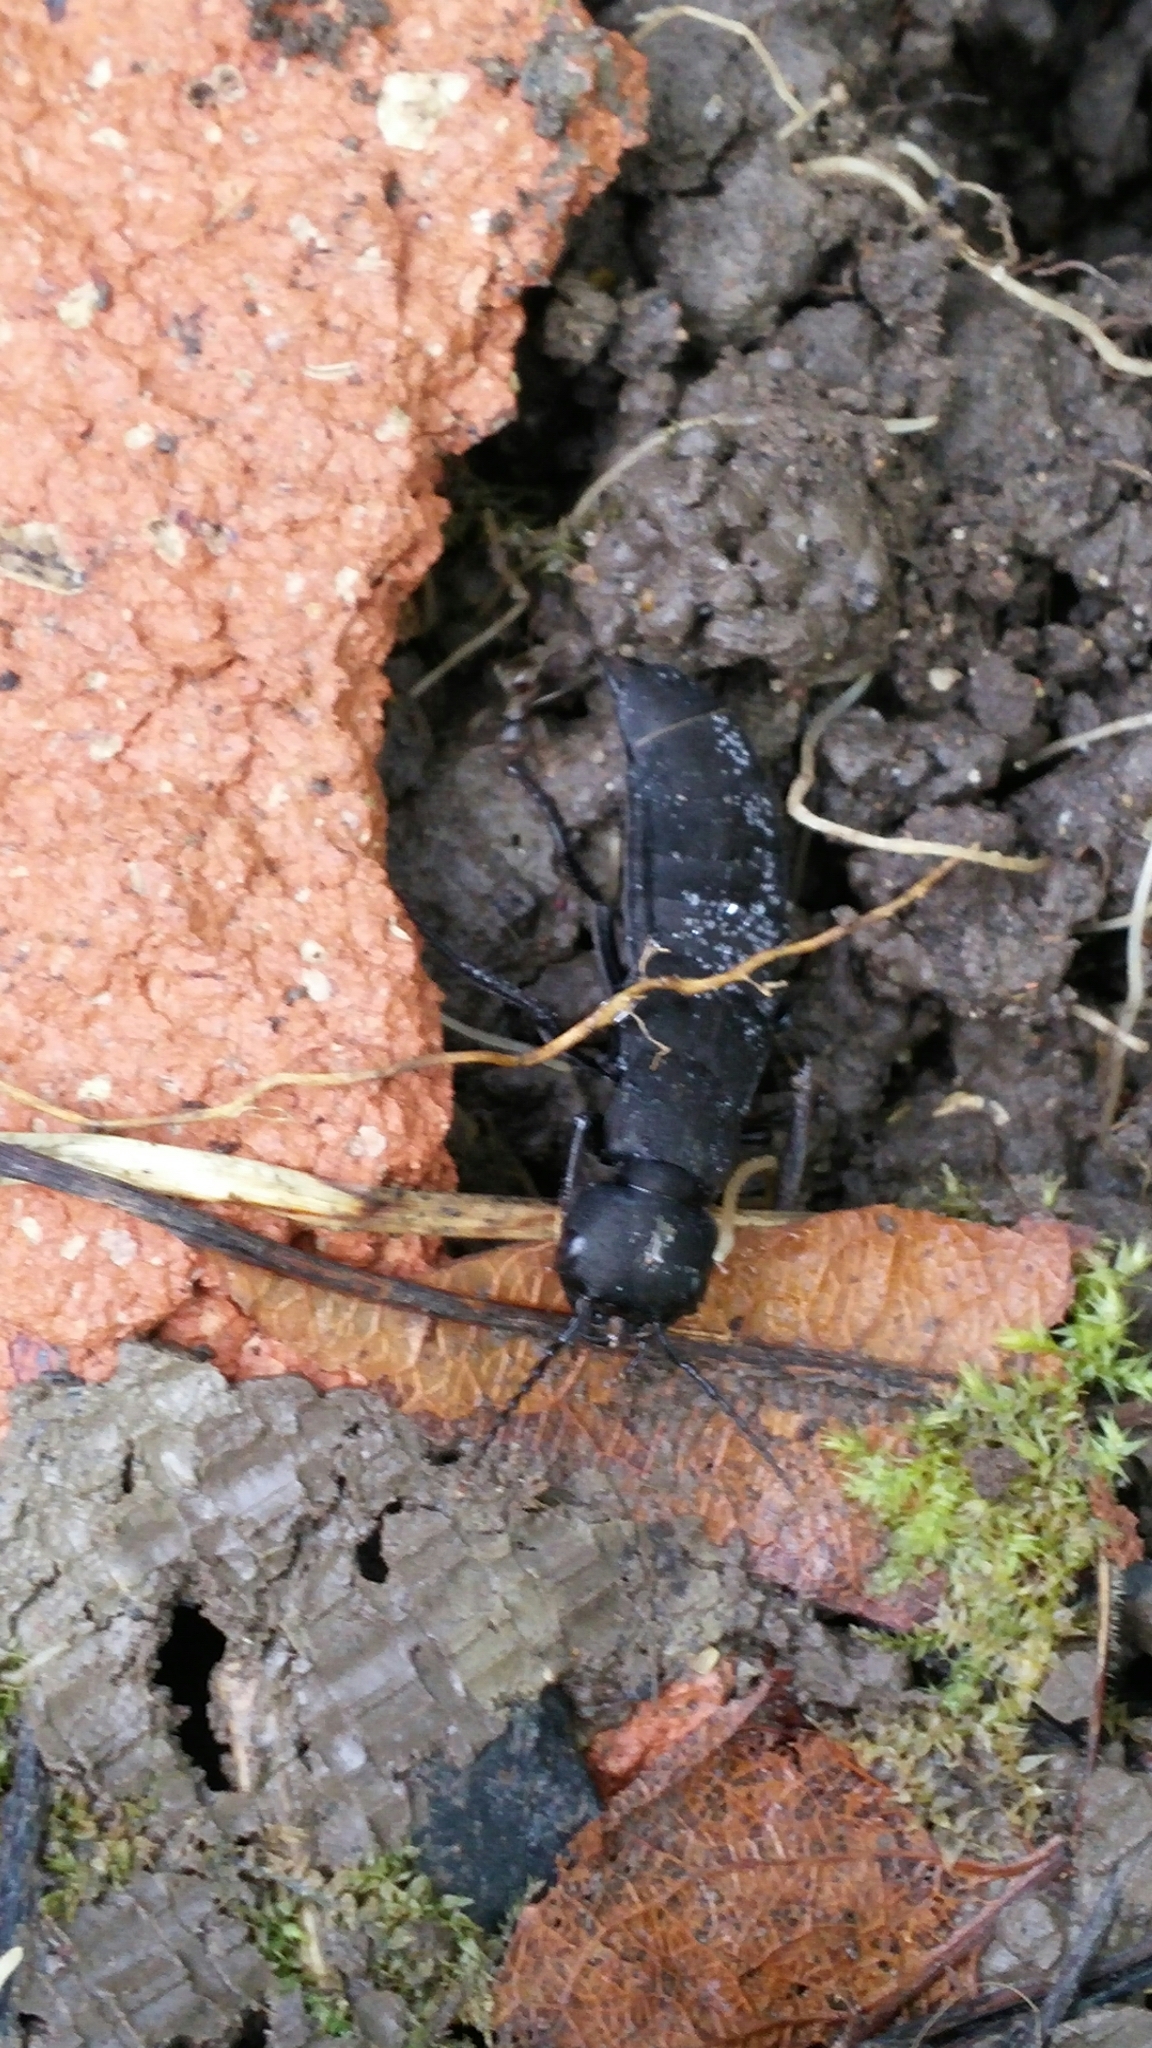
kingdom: Animalia
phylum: Arthropoda
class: Insecta
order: Coleoptera
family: Staphylinidae
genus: Ocypus
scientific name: Ocypus olens
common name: Devil's coach-horse
